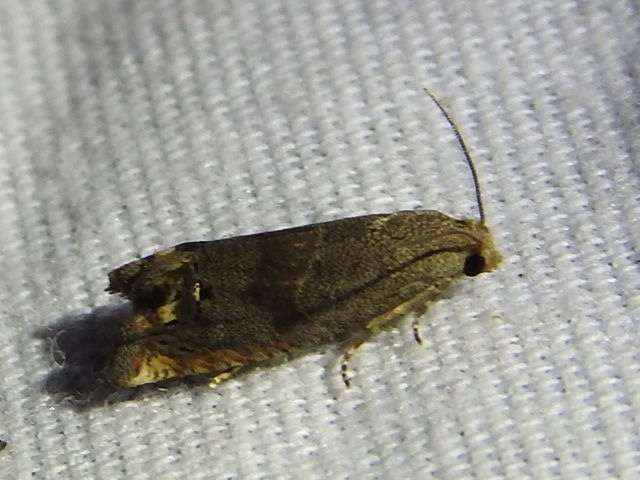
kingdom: Animalia
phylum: Arthropoda
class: Insecta
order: Lepidoptera
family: Tortricidae
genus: Epiblema
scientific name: Epiblema strenuana
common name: Ragweed borer moth
